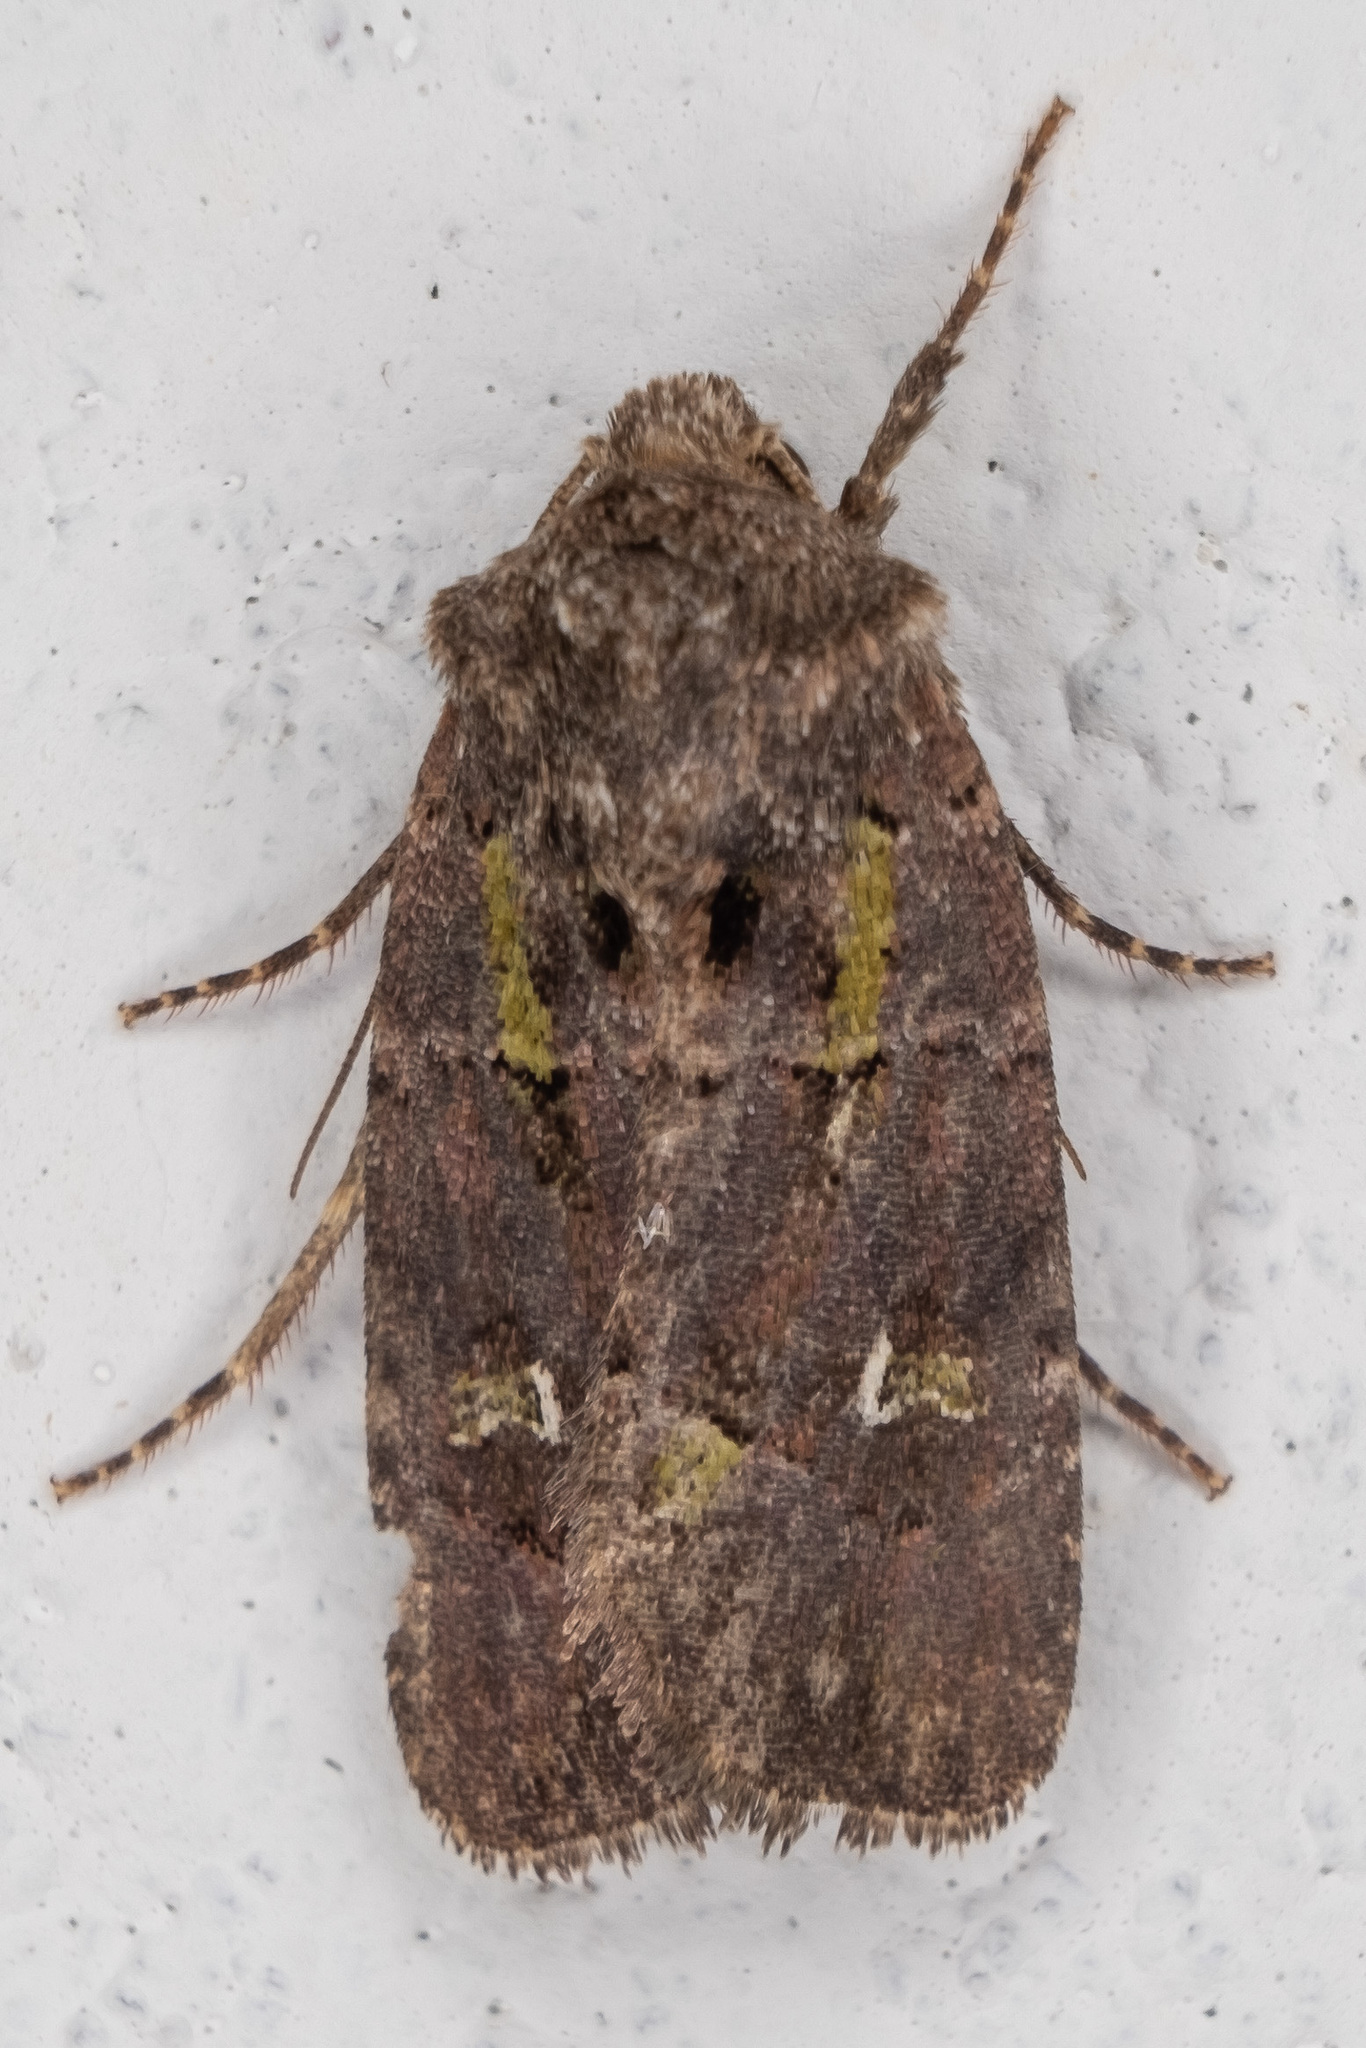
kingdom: Animalia
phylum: Arthropoda
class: Insecta
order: Lepidoptera
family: Noctuidae
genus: Lacinipolia
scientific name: Lacinipolia renigera
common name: Kidney-spotted minor
